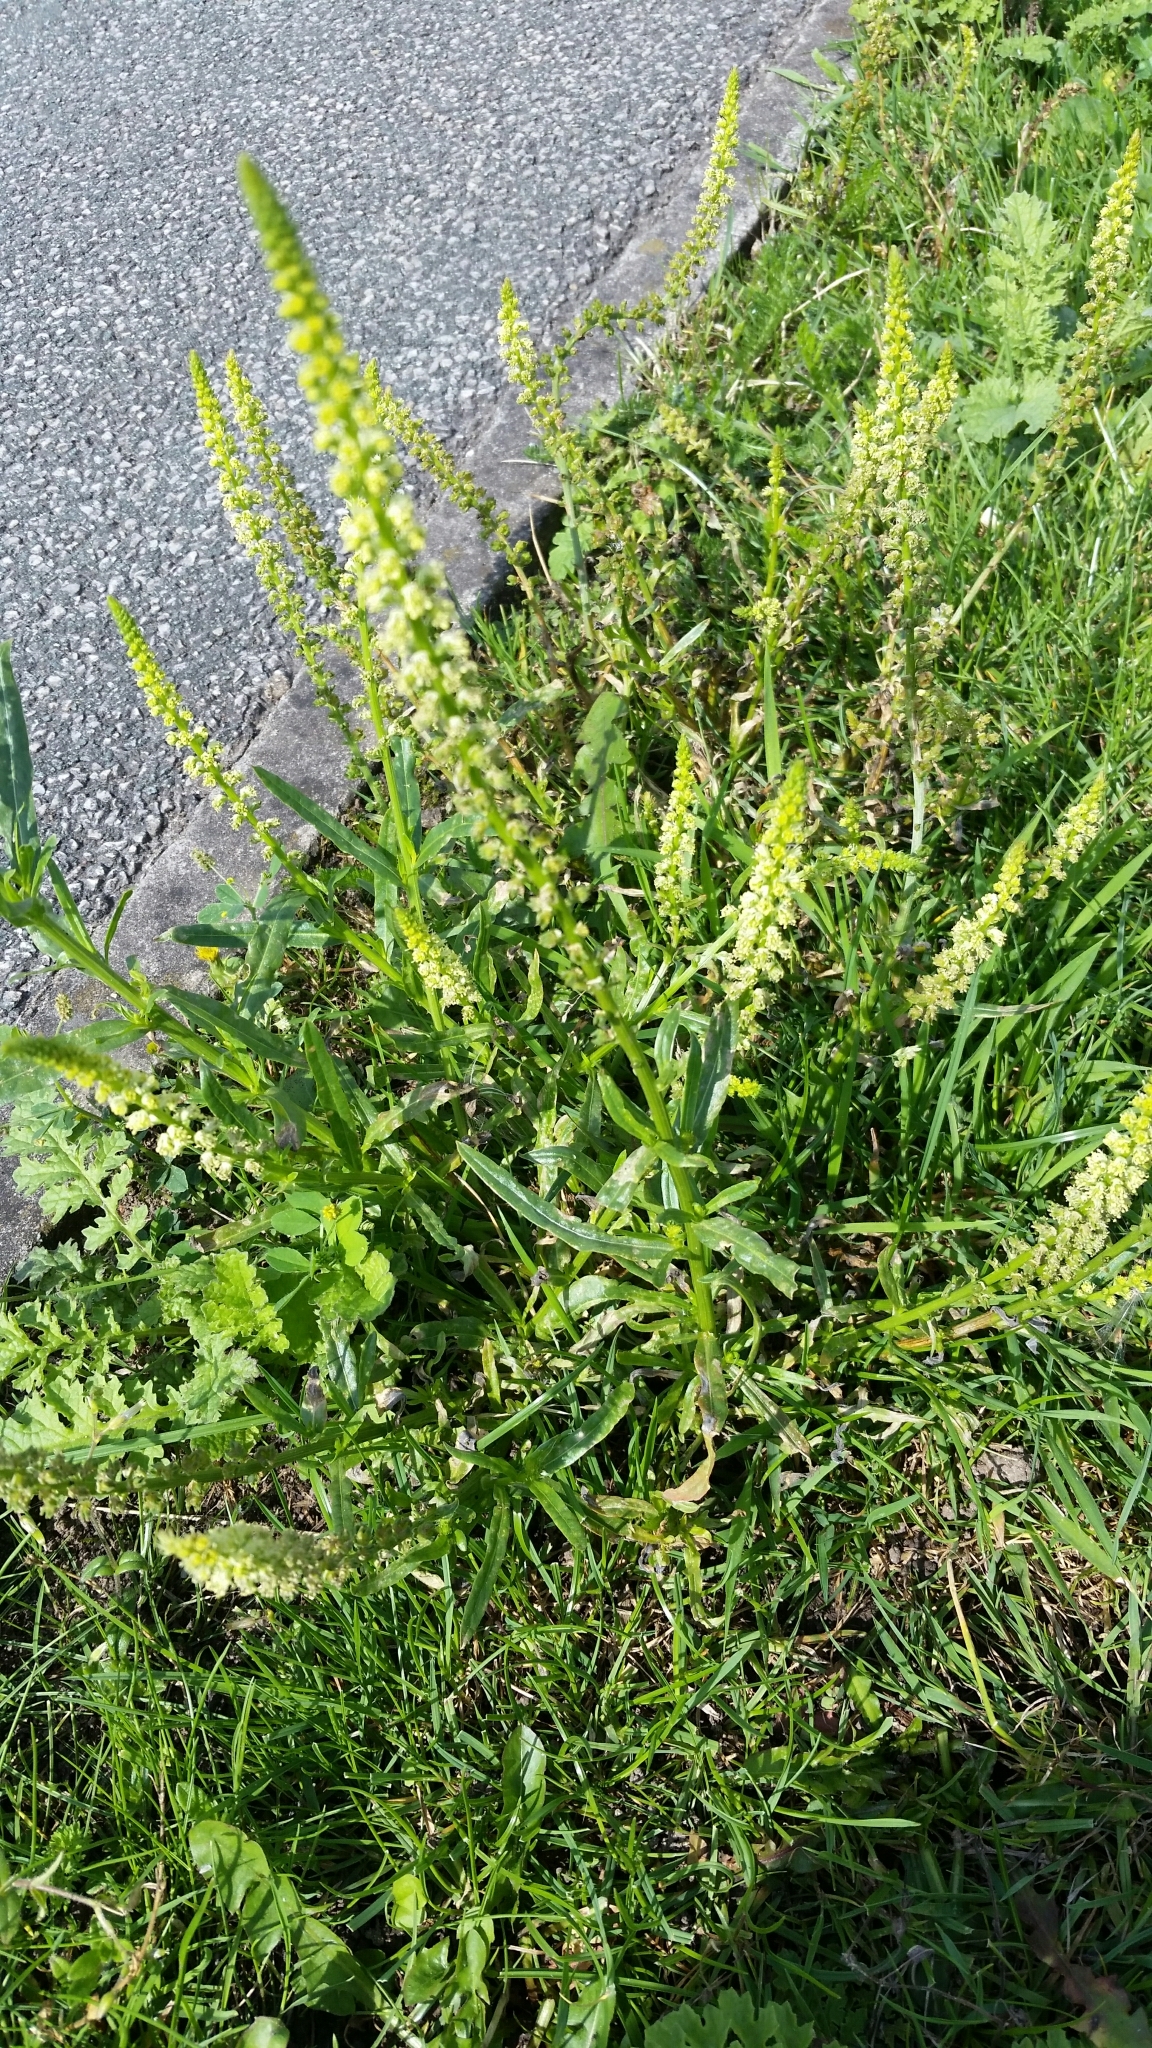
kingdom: Plantae
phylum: Tracheophyta
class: Magnoliopsida
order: Brassicales
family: Resedaceae
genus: Reseda
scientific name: Reseda luteola
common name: Weld
